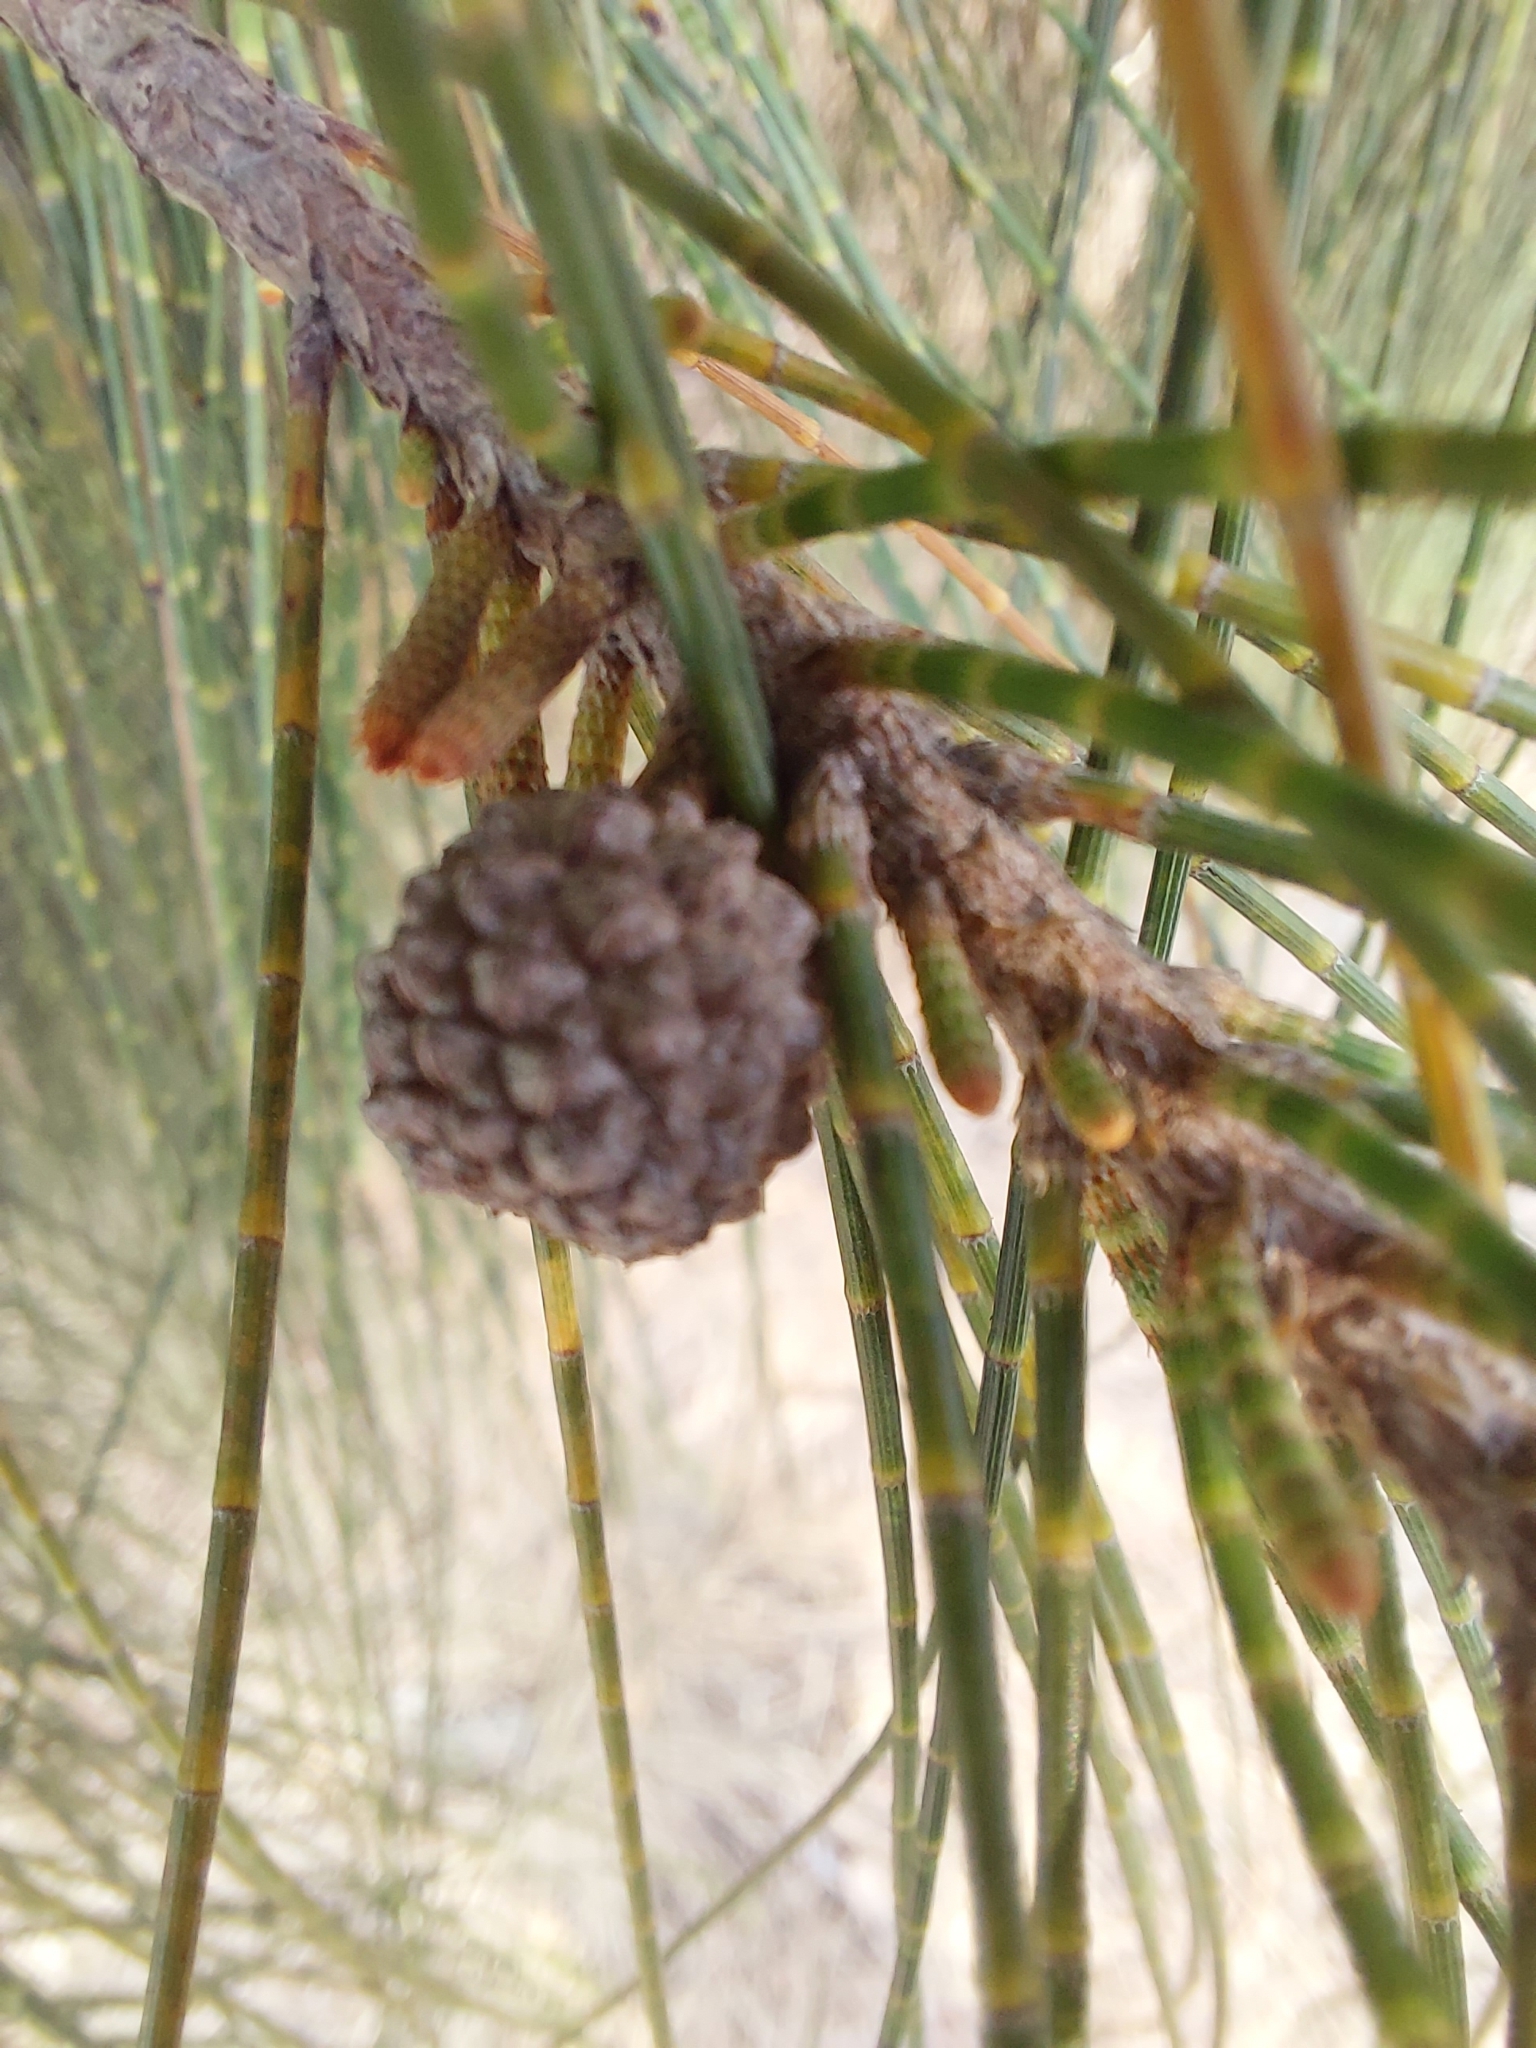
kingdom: Plantae
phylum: Tracheophyta
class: Magnoliopsida
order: Fagales
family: Casuarinaceae
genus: Casuarina
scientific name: Casuarina equisetifolia
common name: Beach sheoak
